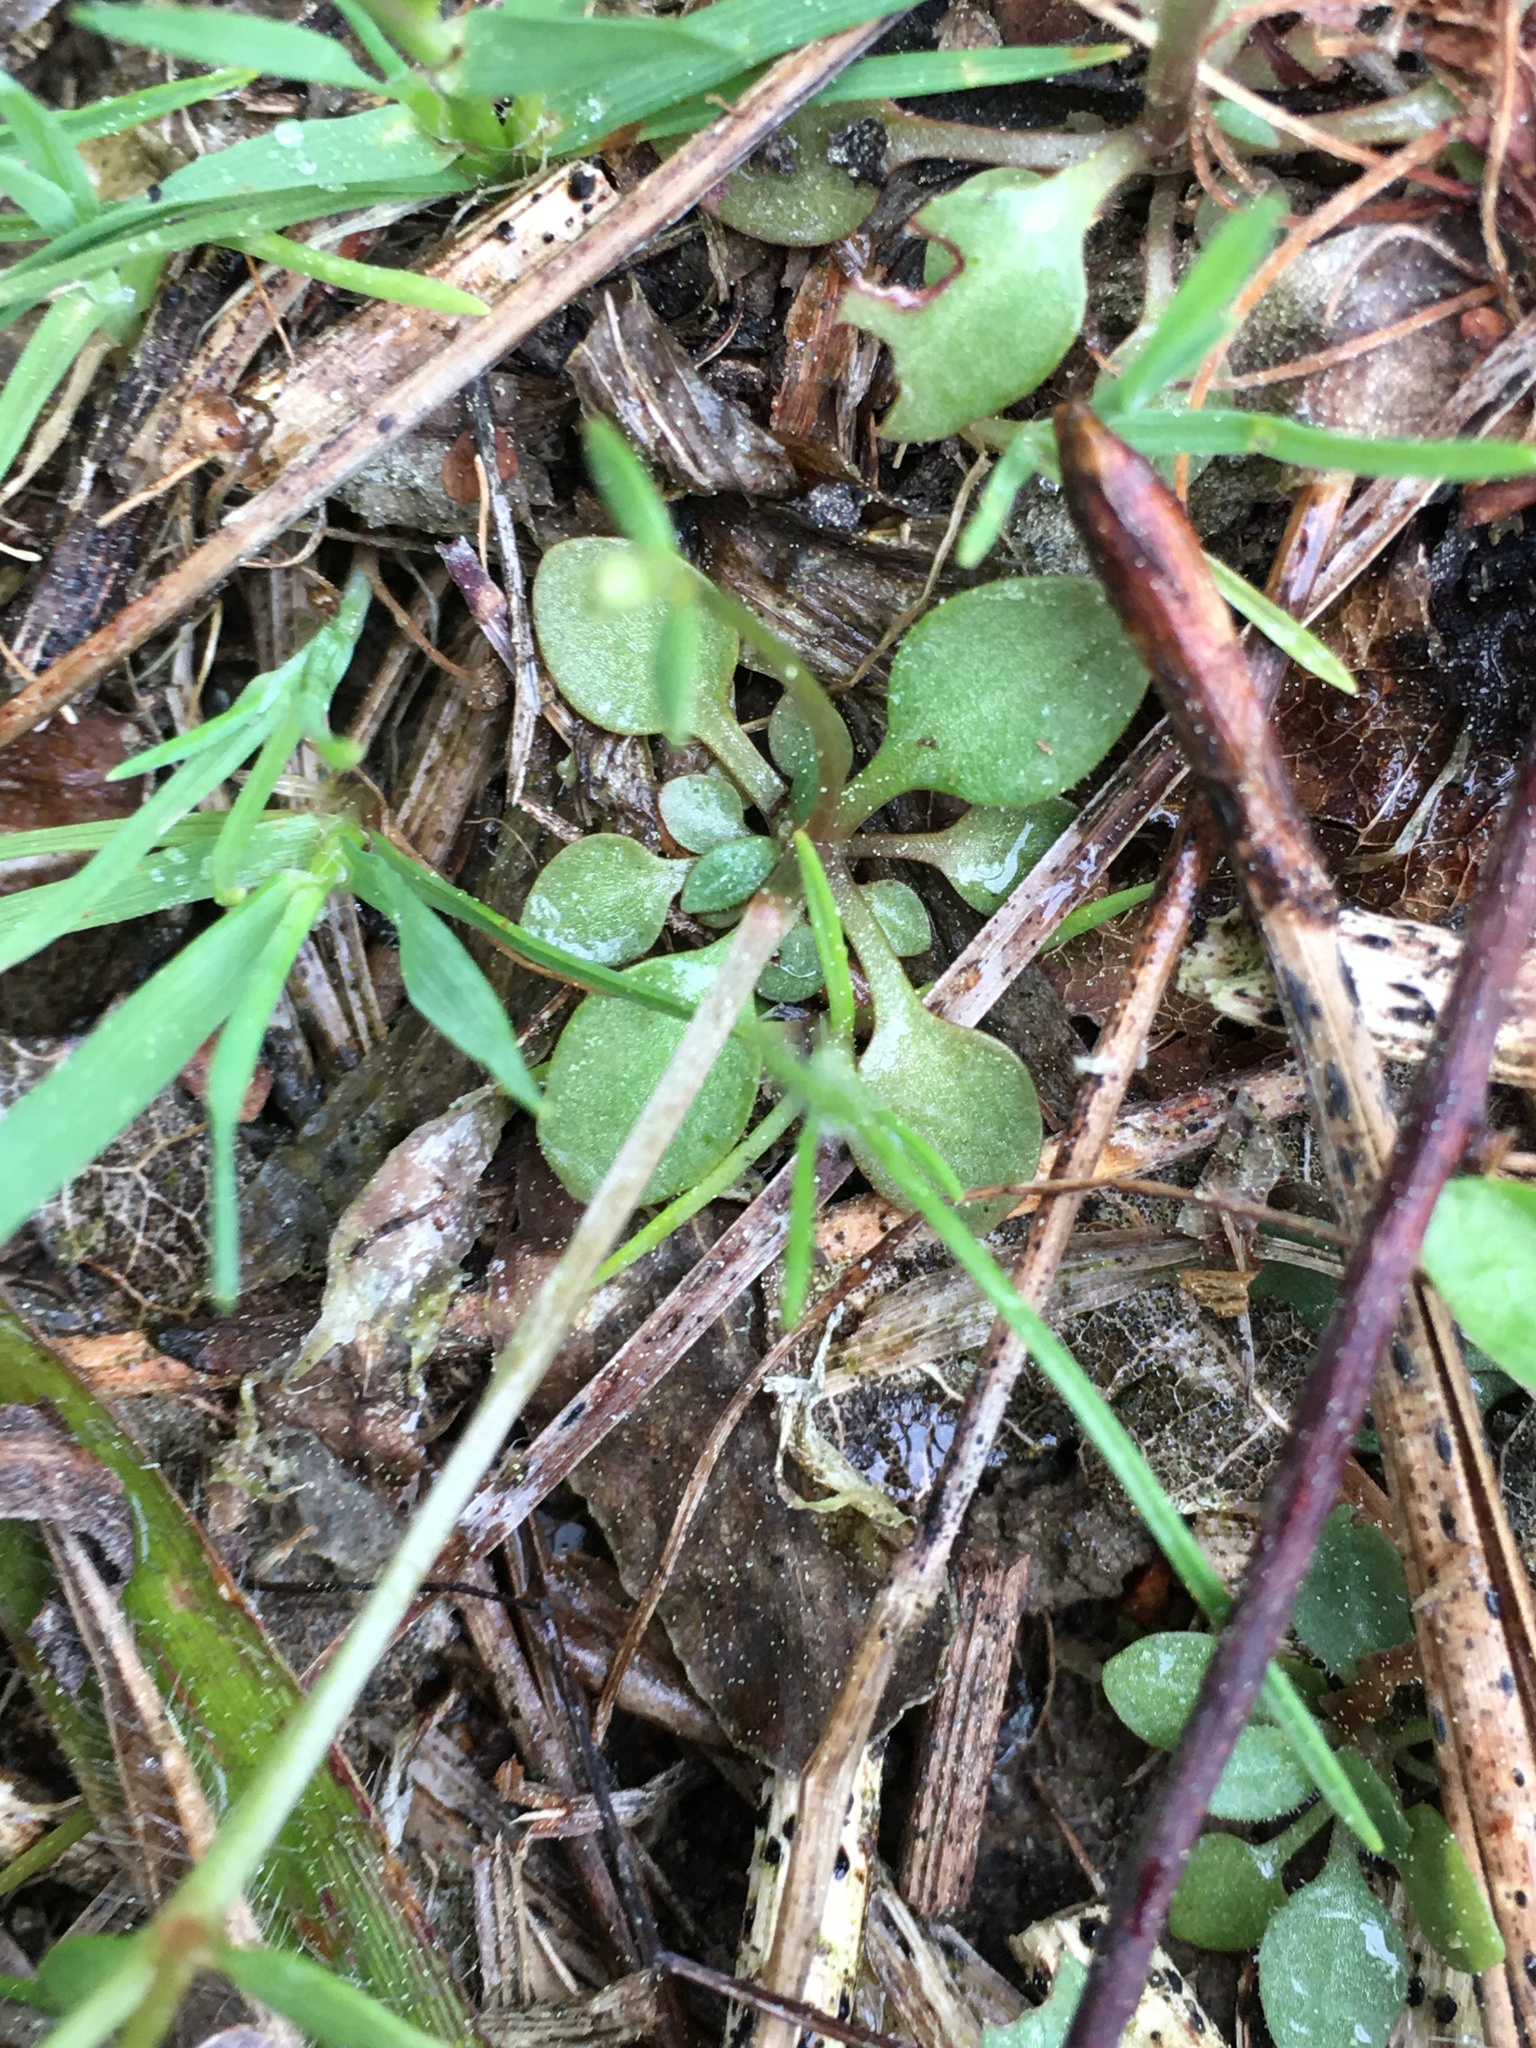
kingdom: Plantae
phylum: Tracheophyta
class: Magnoliopsida
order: Gentianales
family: Rubiaceae
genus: Houstonia
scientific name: Houstonia caerulea
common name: Bluets
